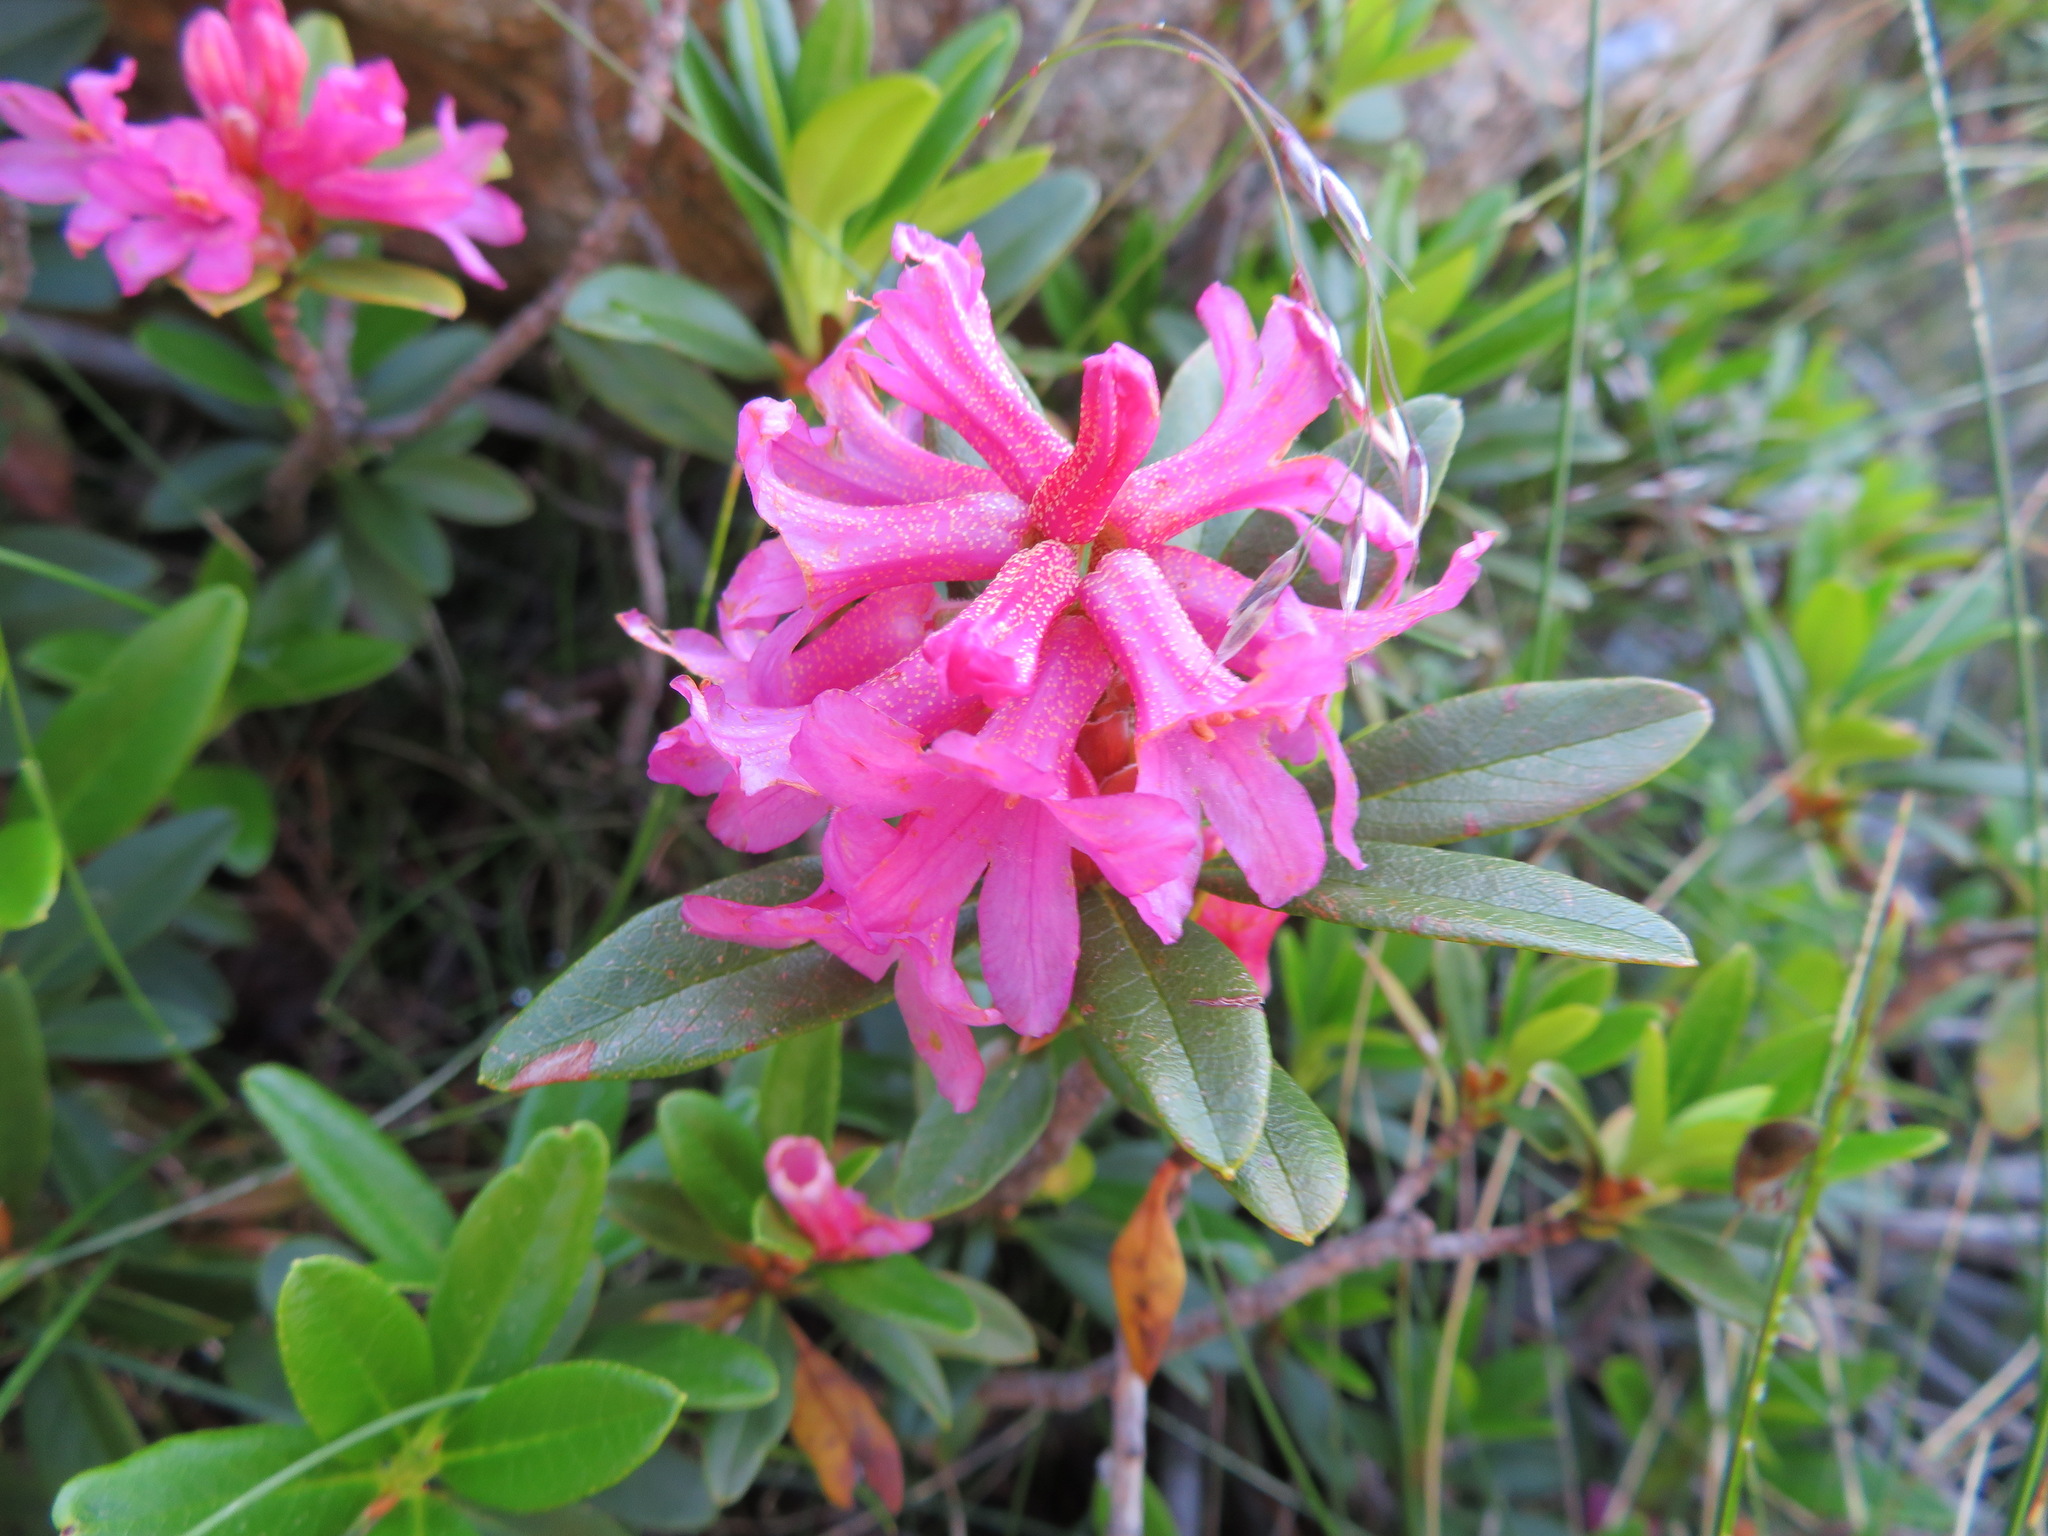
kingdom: Plantae
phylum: Tracheophyta
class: Magnoliopsida
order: Ericales
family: Ericaceae
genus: Rhododendron
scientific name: Rhododendron ferrugineum
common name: Alpenrose
